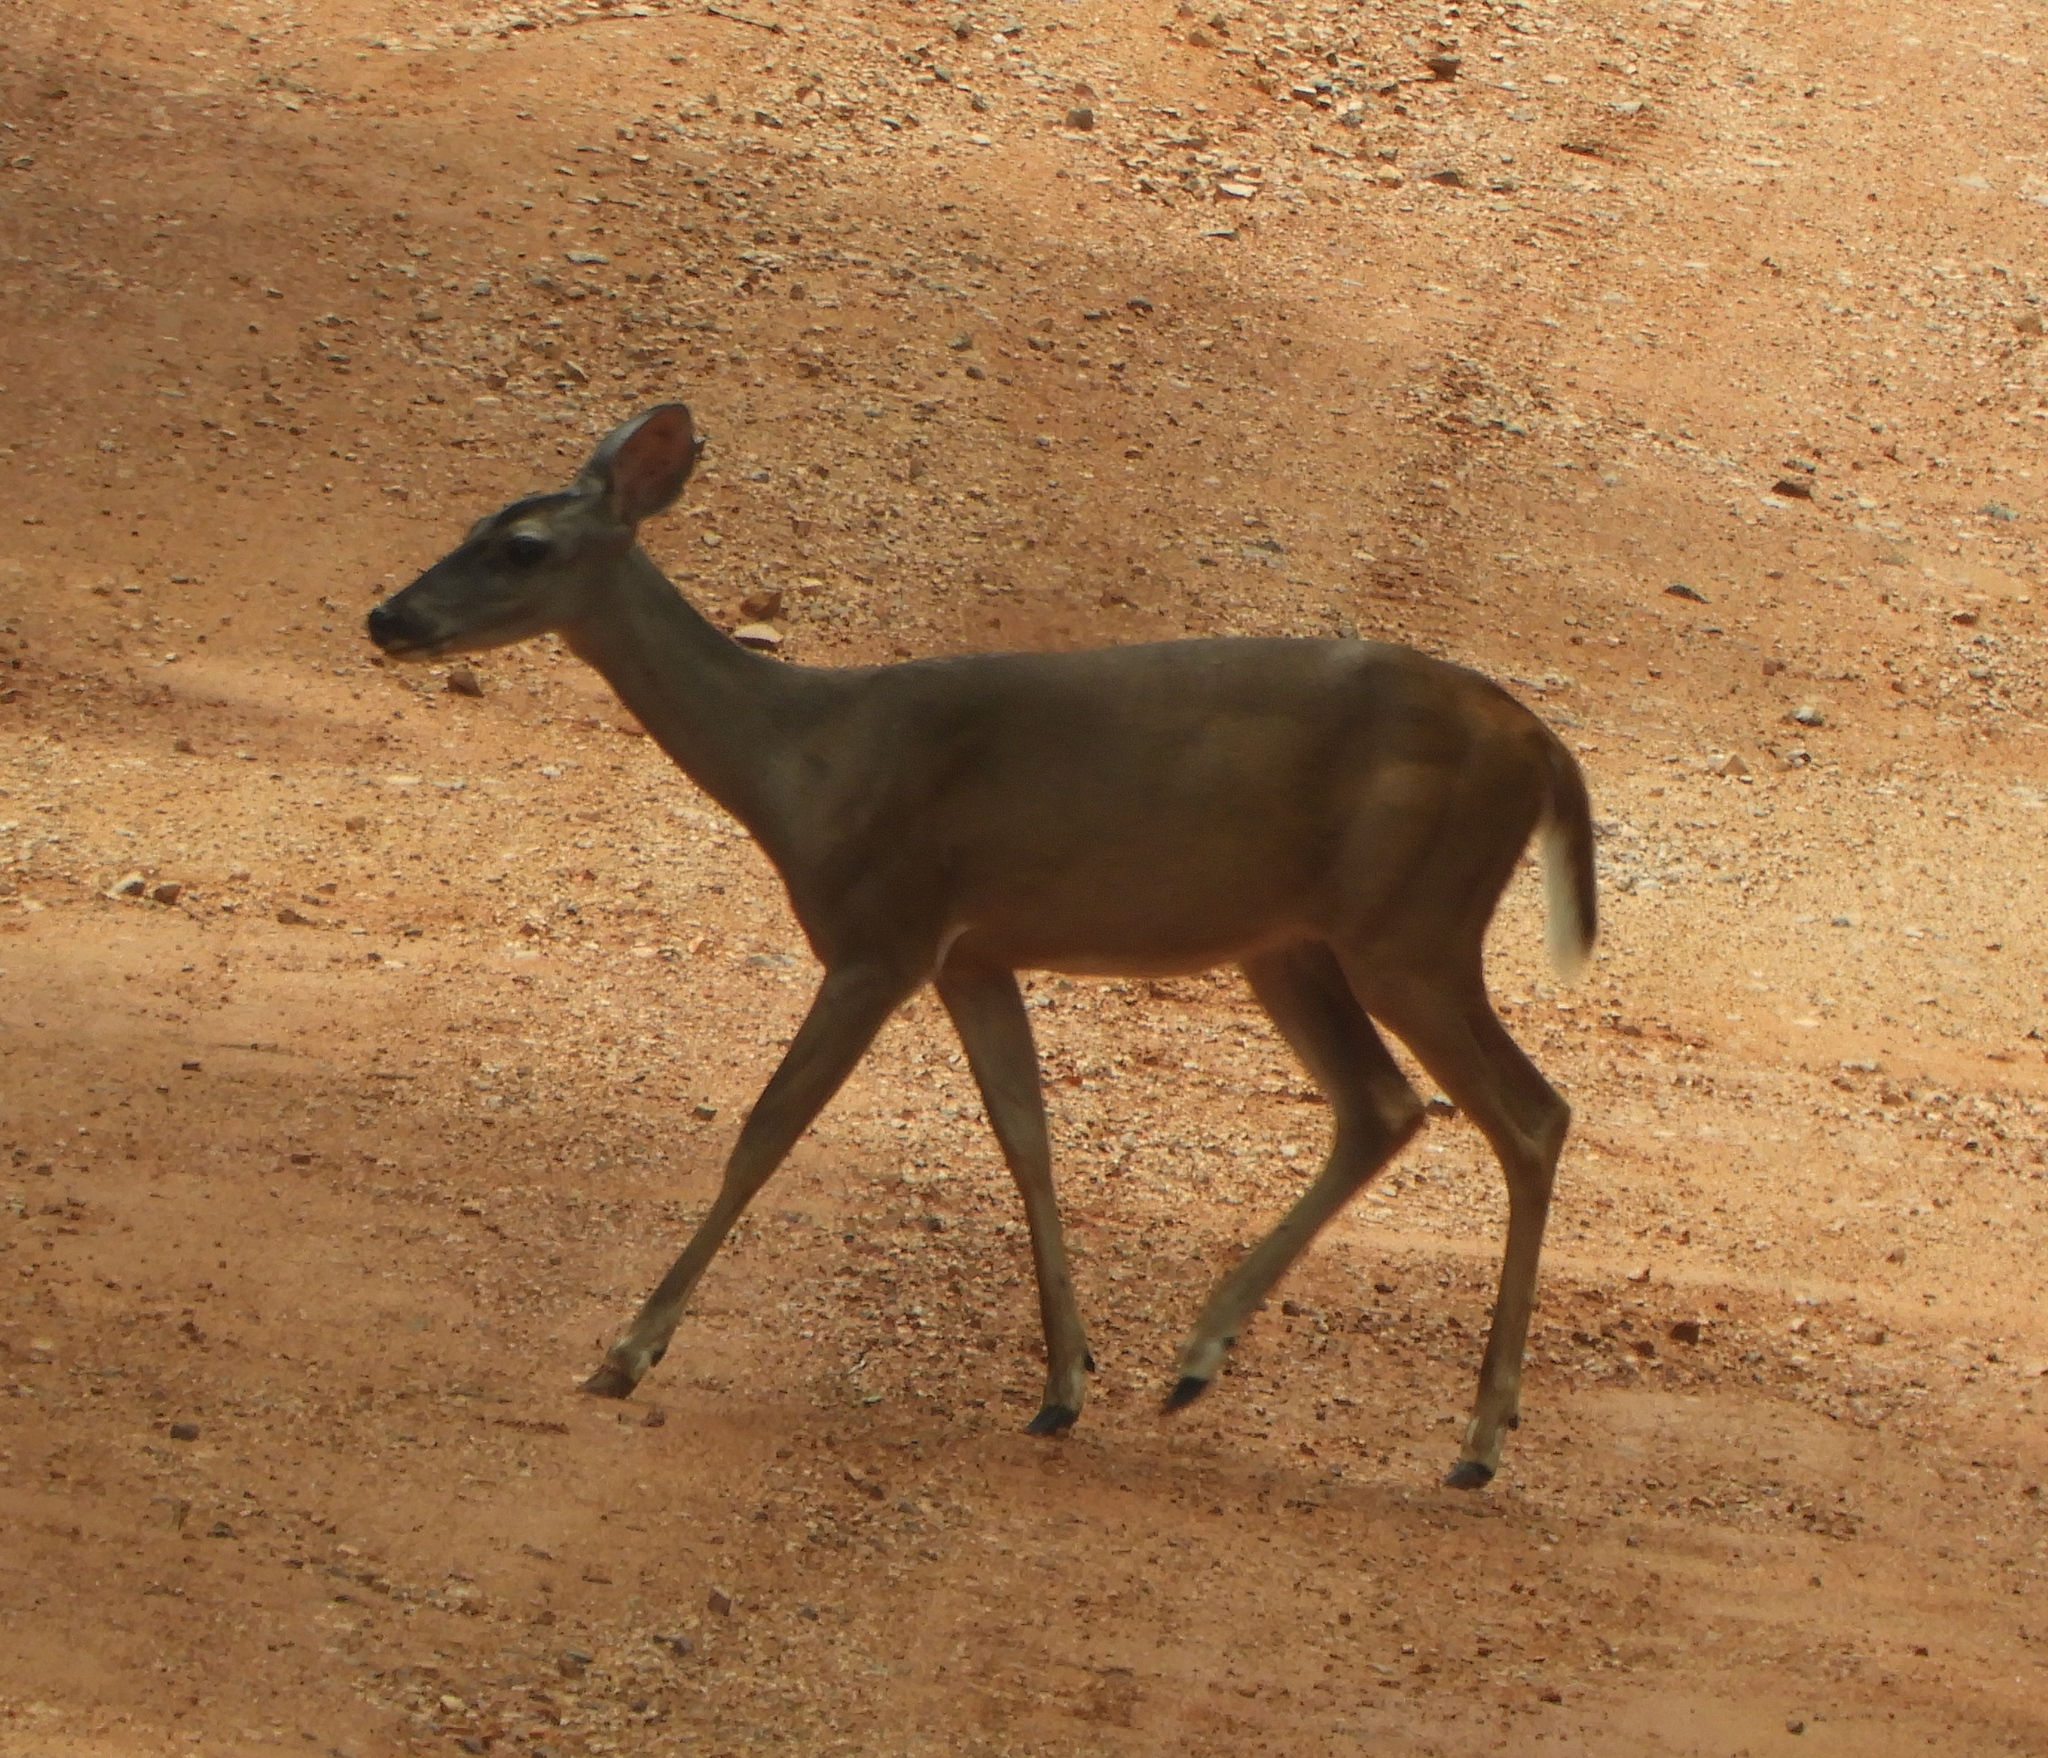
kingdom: Animalia
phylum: Chordata
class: Mammalia
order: Artiodactyla
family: Cervidae
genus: Odocoileus
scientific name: Odocoileus virginianus
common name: White-tailed deer
